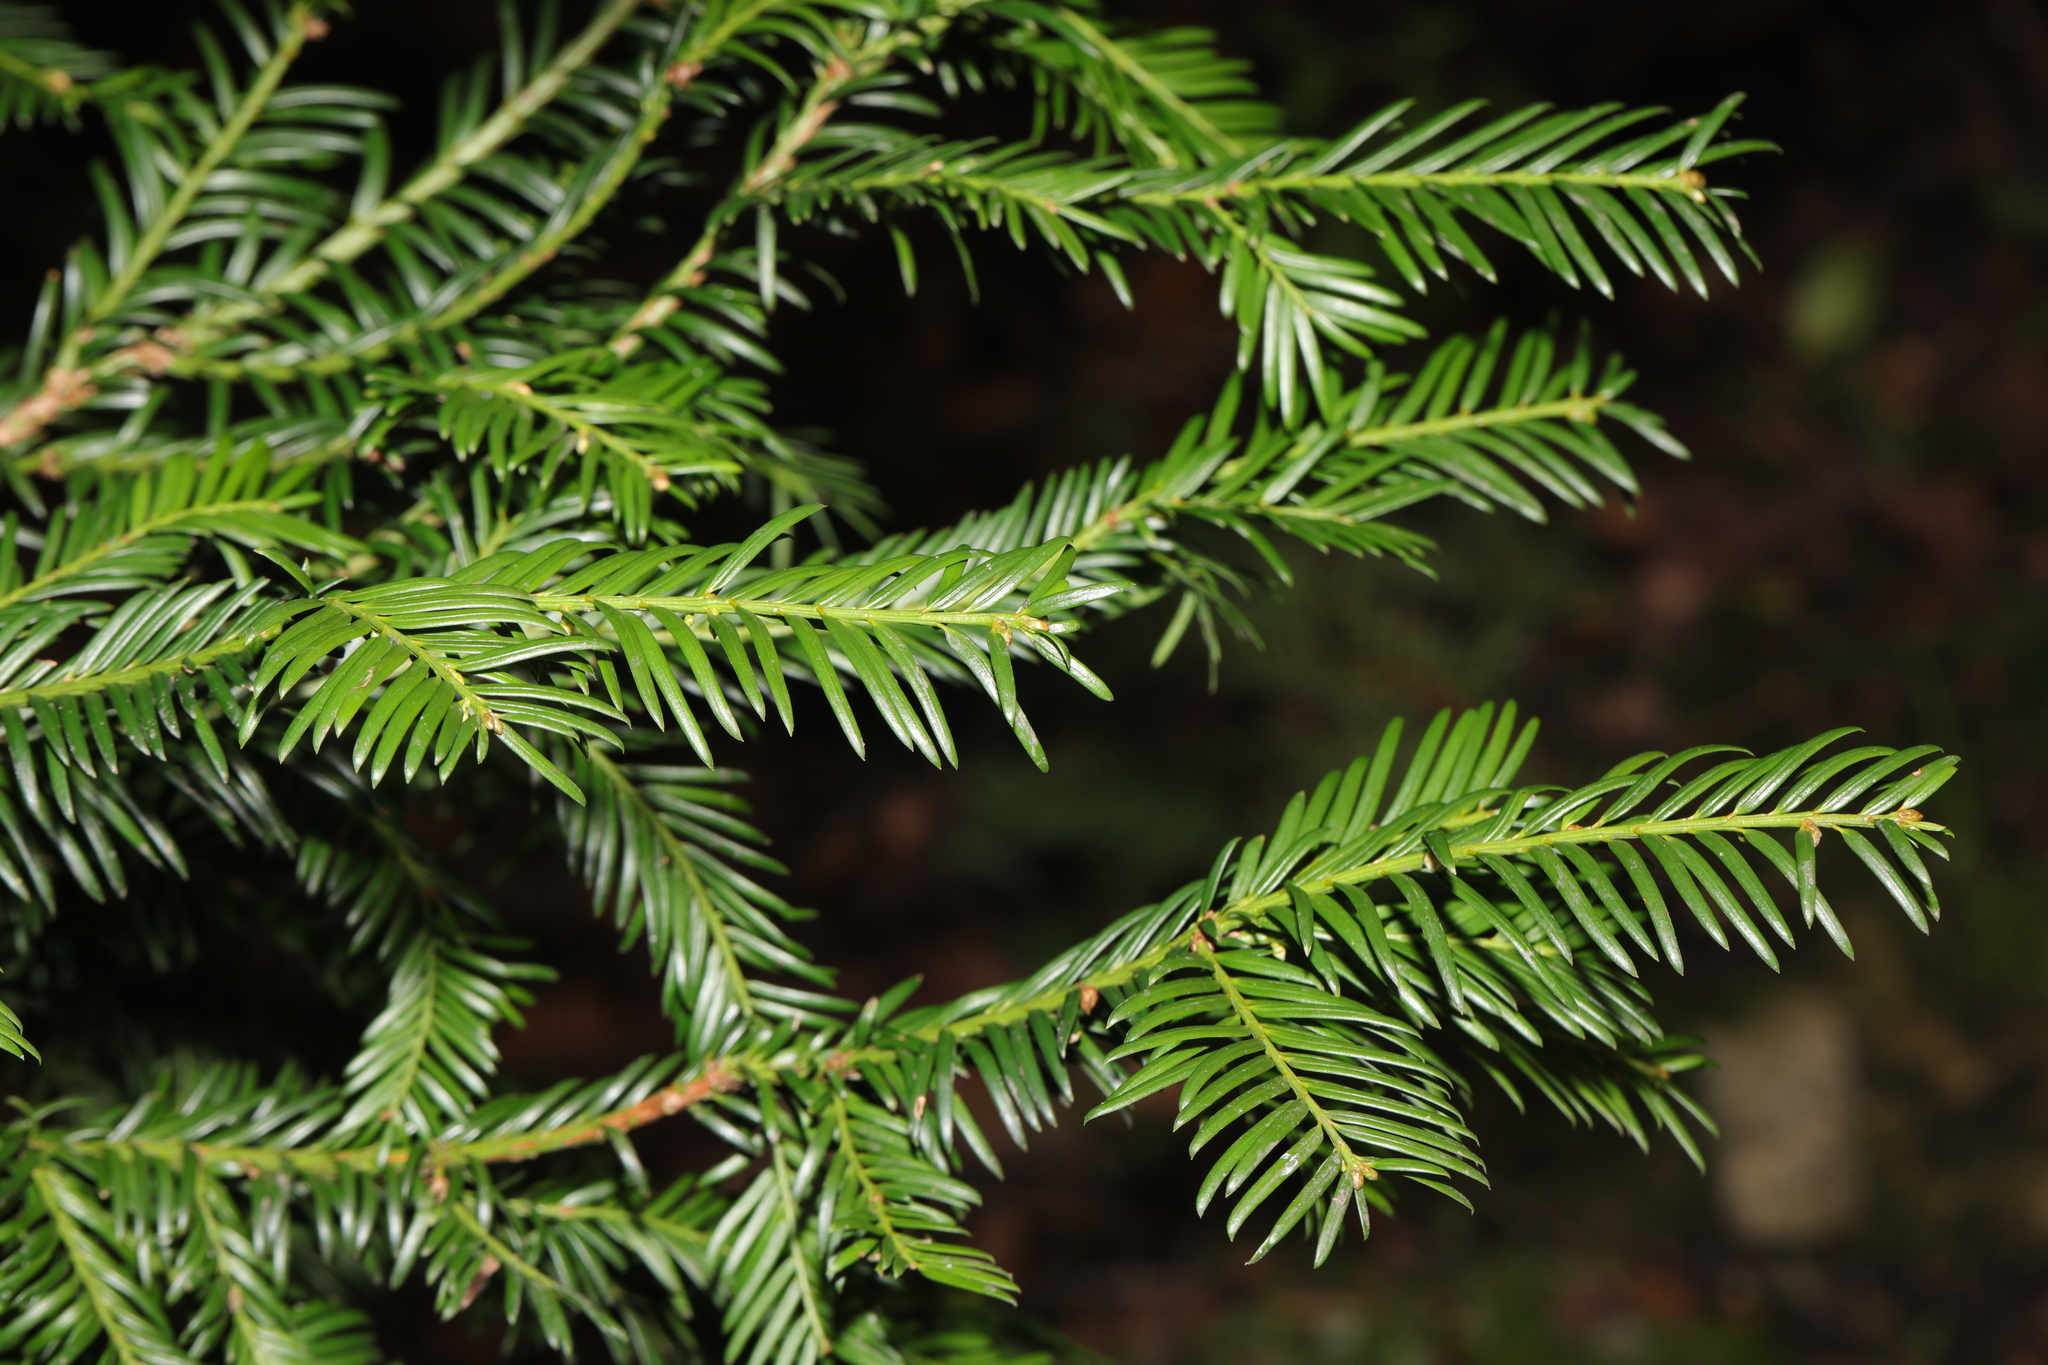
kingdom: Plantae
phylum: Tracheophyta
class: Pinopsida
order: Pinales
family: Taxaceae
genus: Taxus
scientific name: Taxus baccata
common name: Yew
